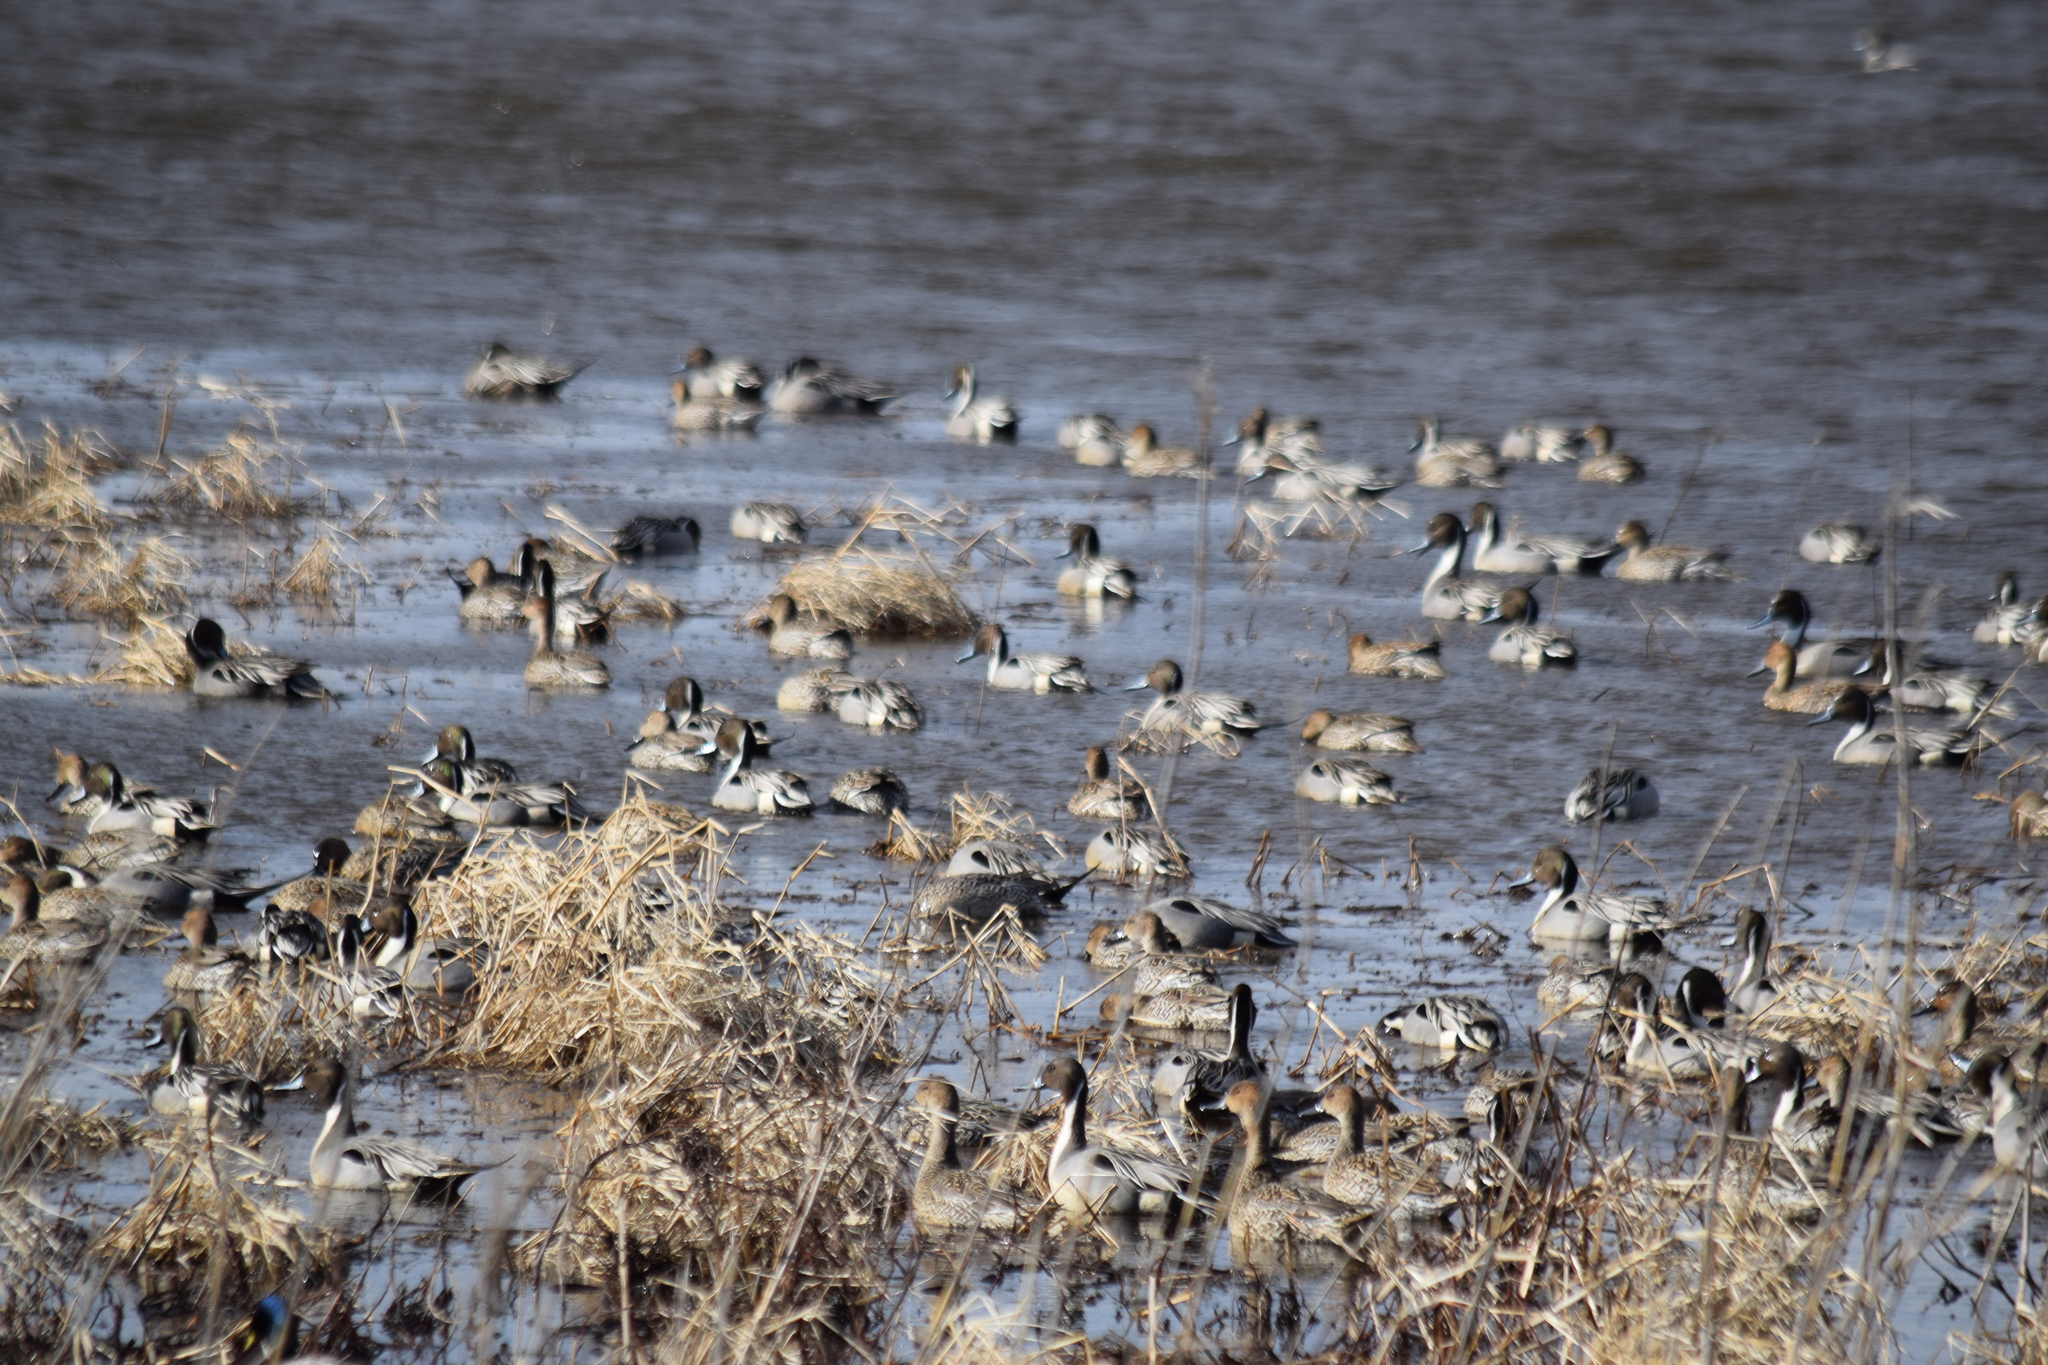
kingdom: Animalia
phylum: Chordata
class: Aves
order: Anseriformes
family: Anatidae
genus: Anas
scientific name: Anas acuta
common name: Northern pintail
